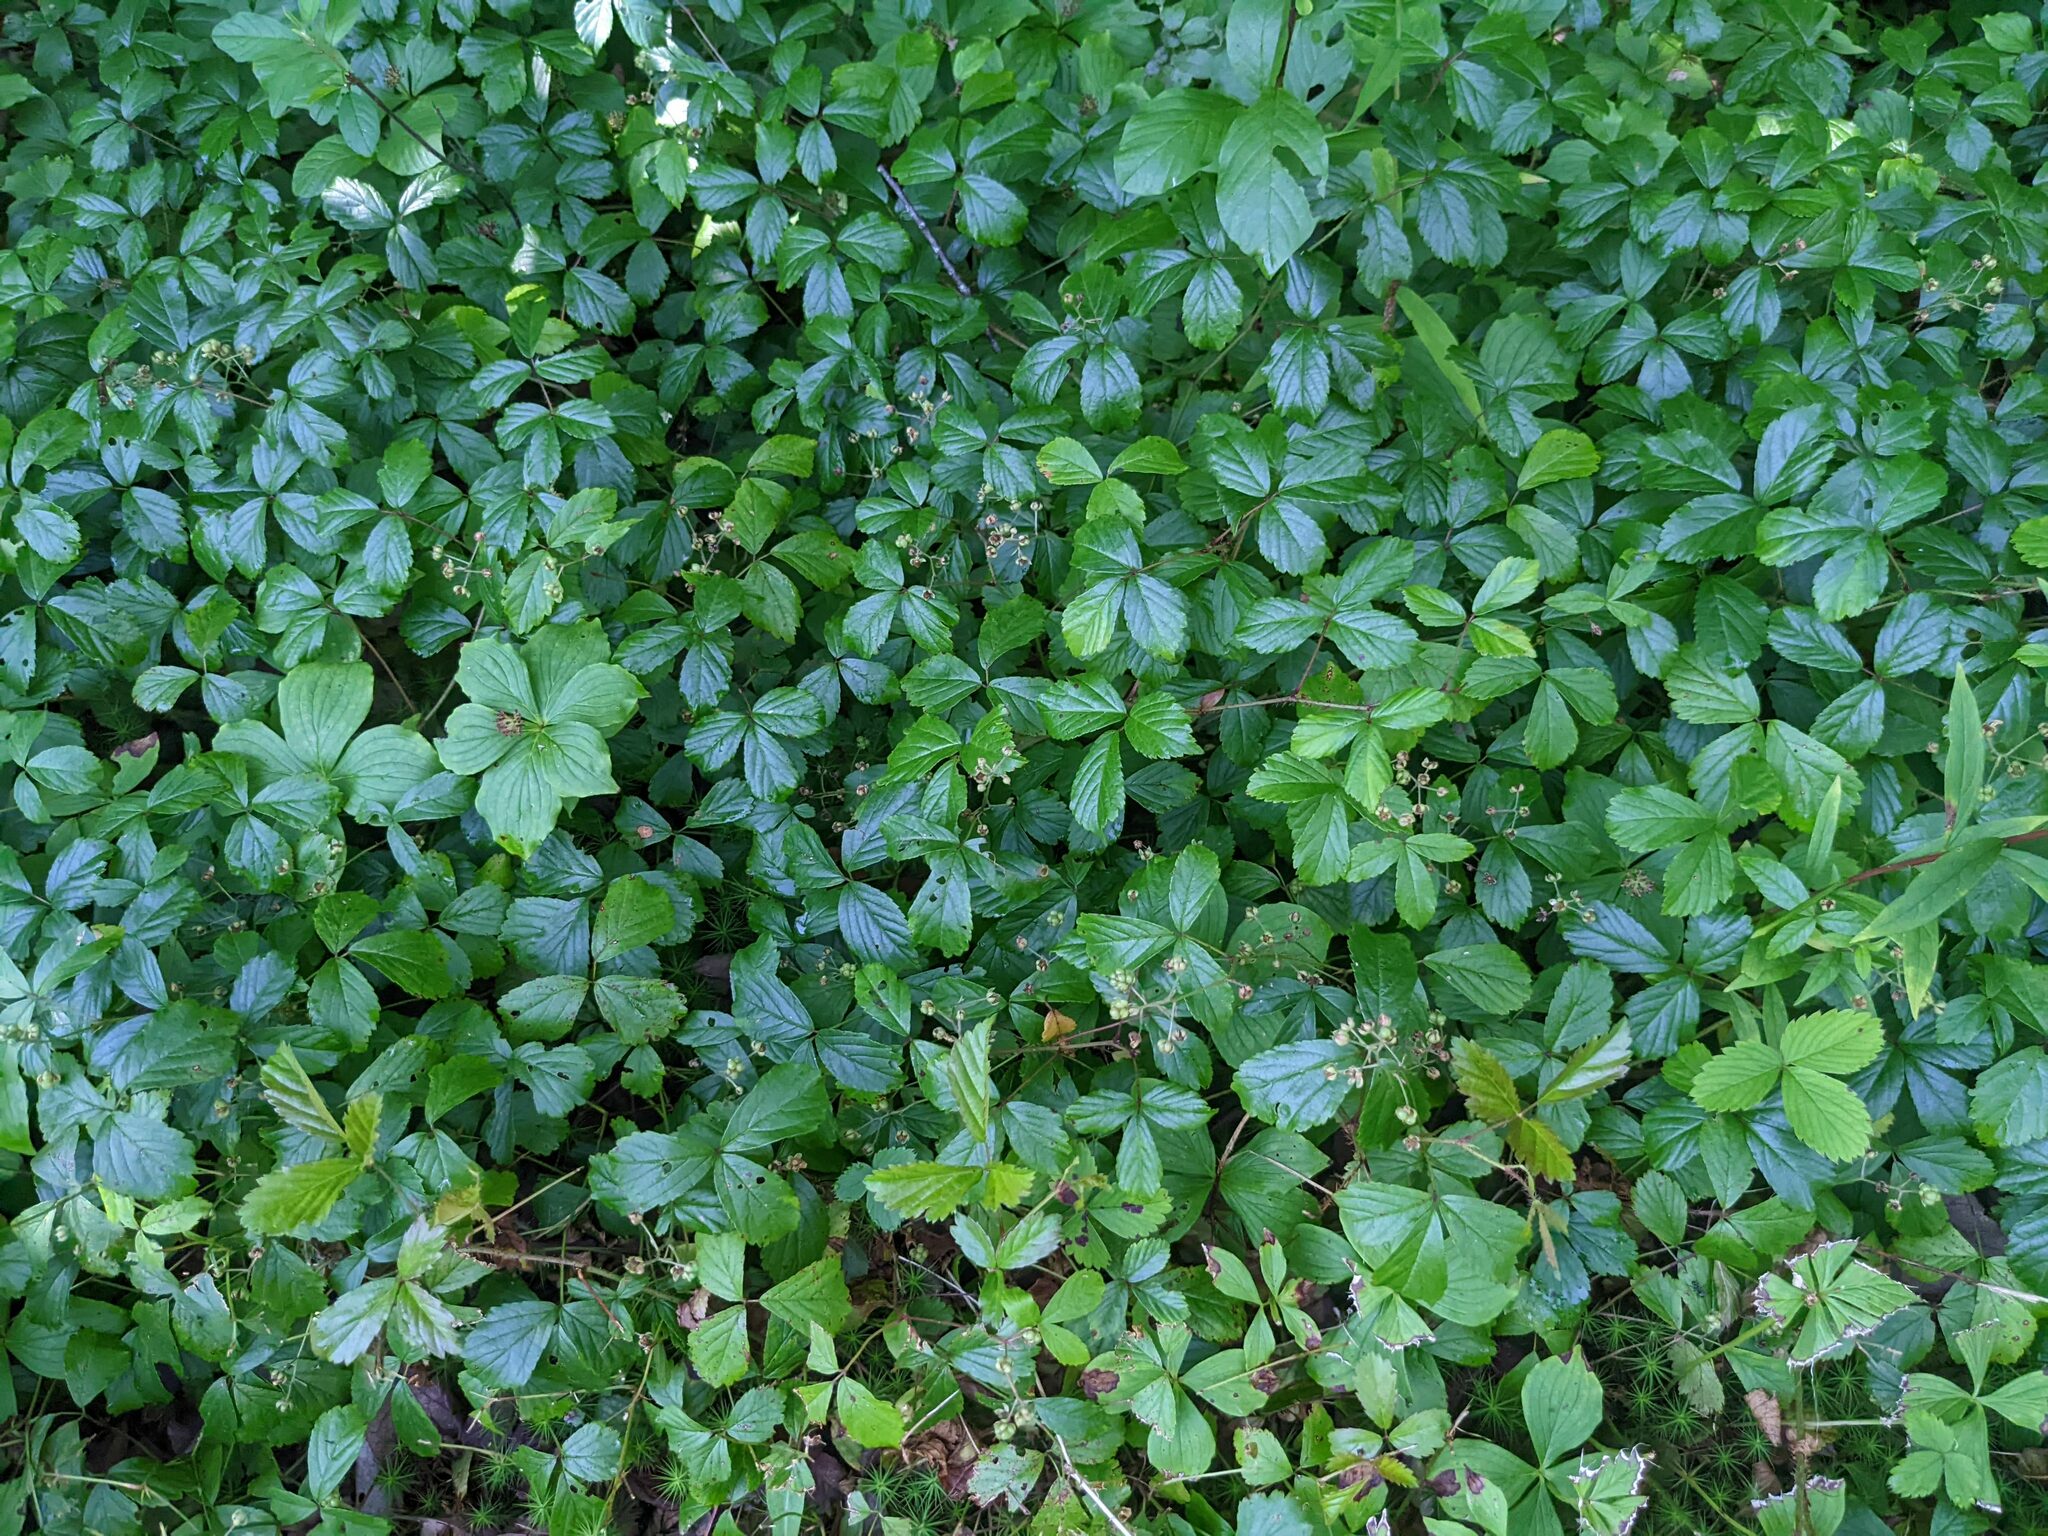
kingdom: Plantae
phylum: Tracheophyta
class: Magnoliopsida
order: Rosales
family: Rosaceae
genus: Rubus
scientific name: Rubus hispidus
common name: Running blackberry
